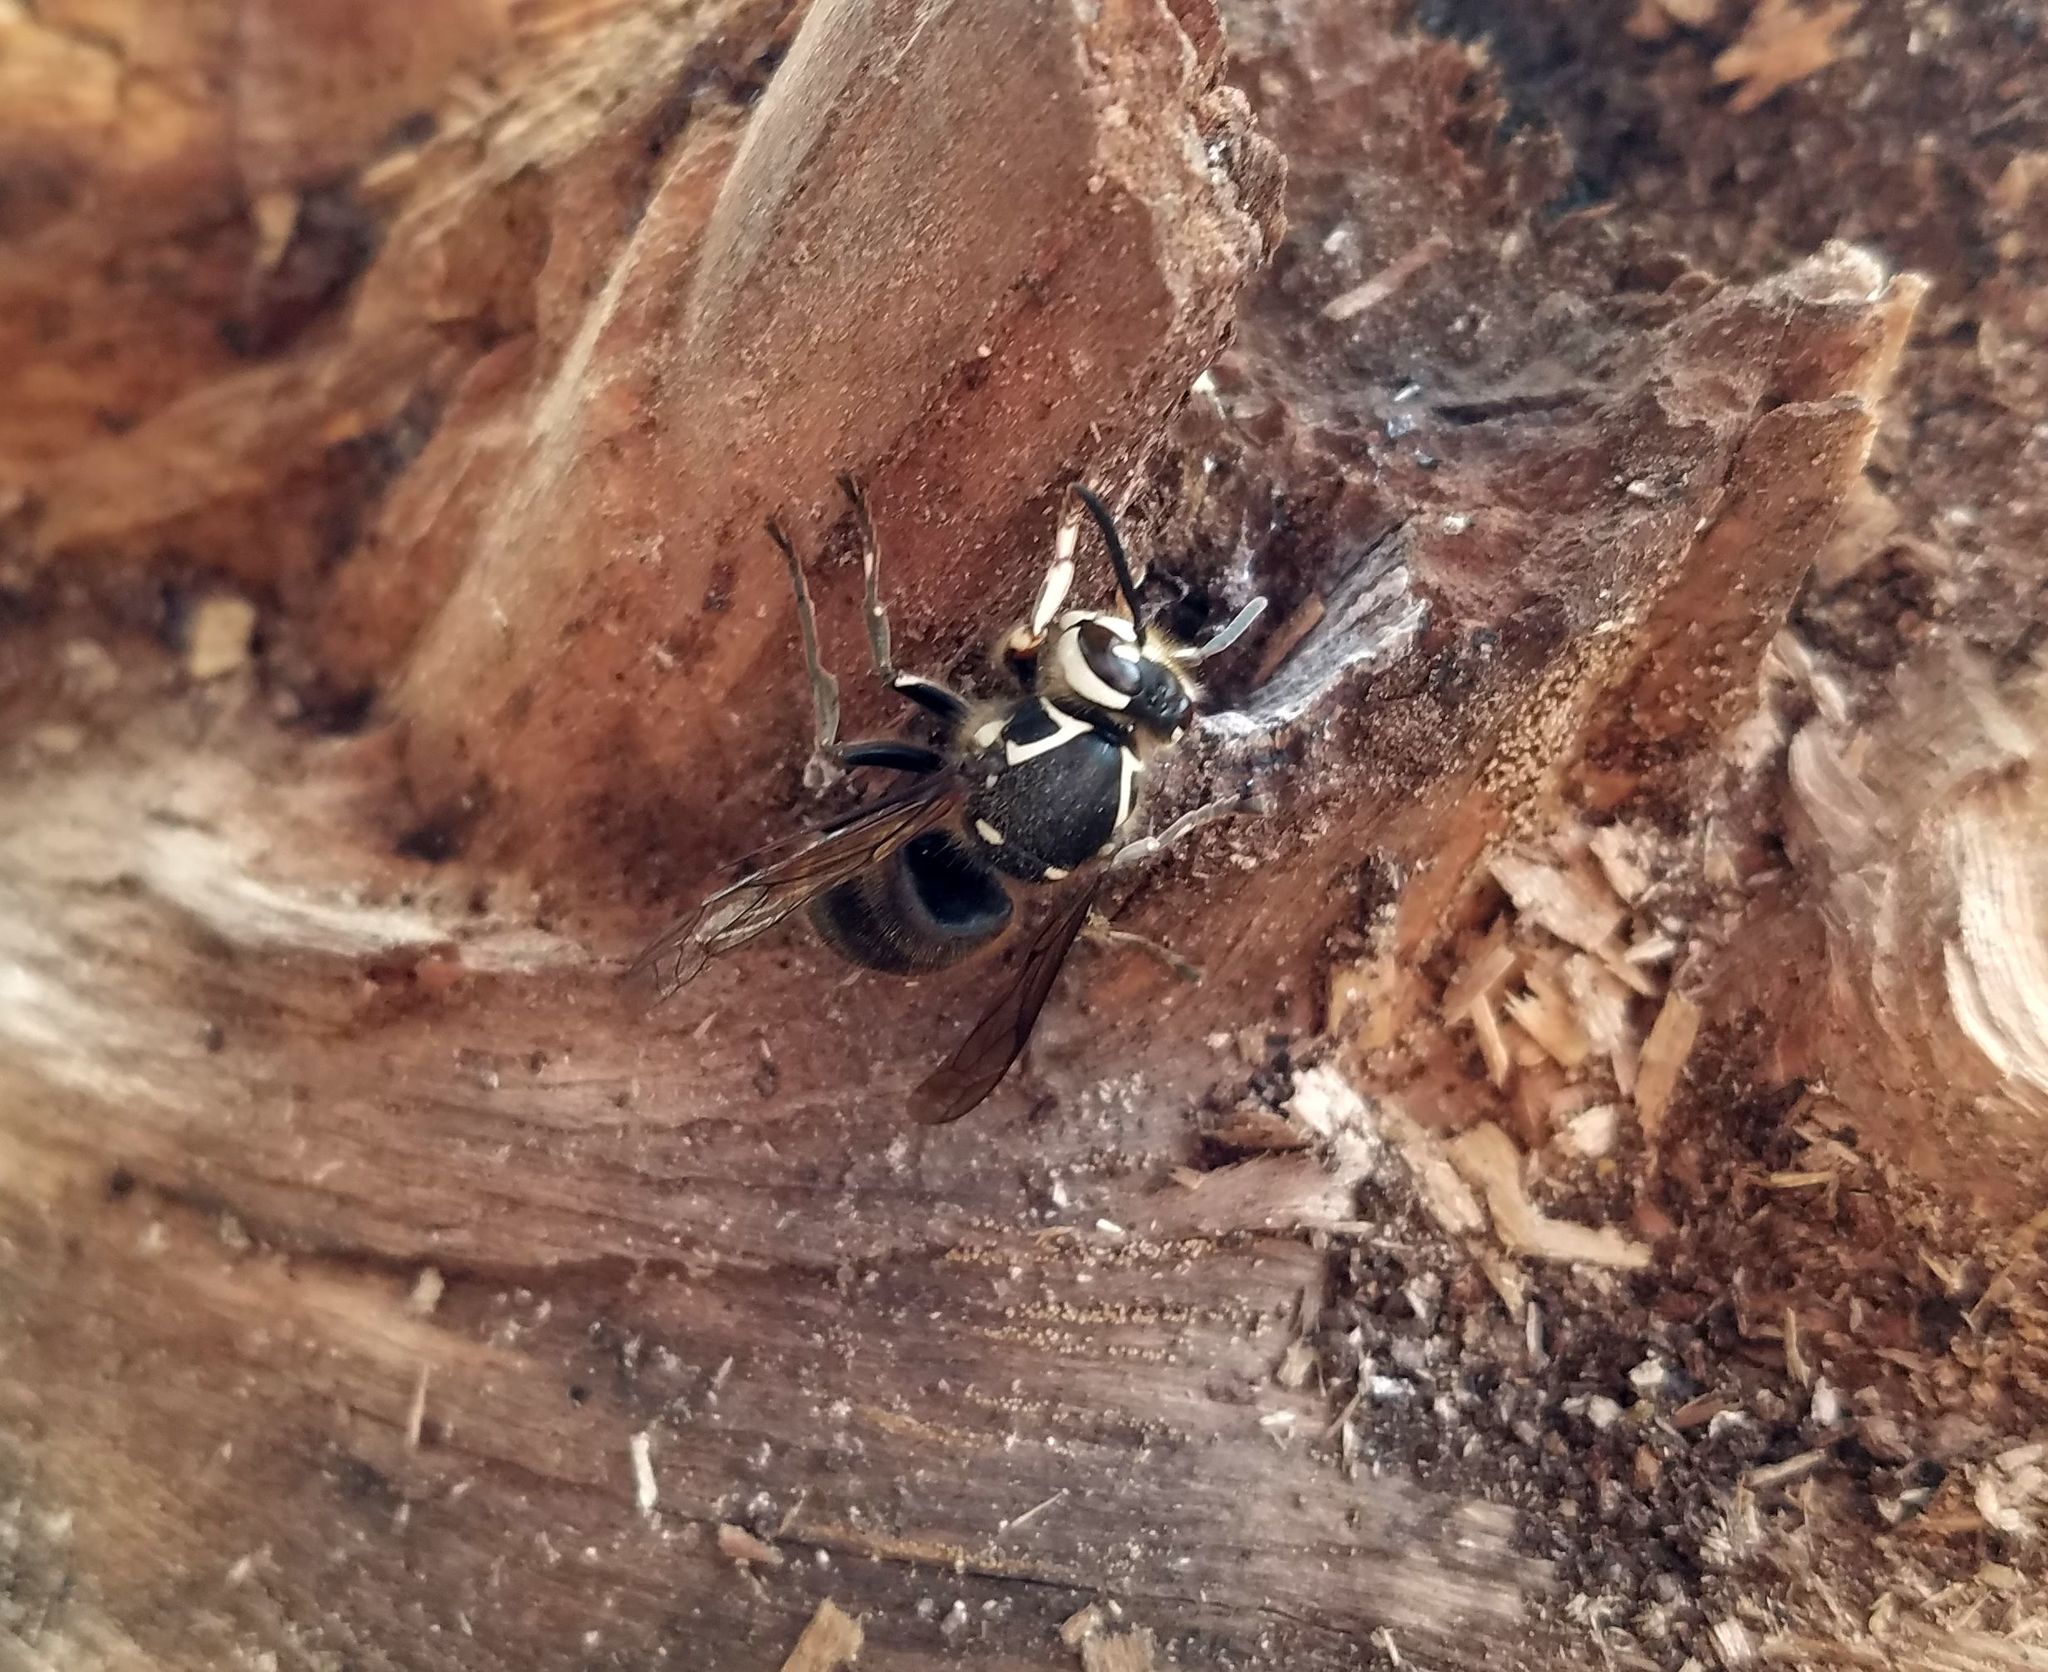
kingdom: Animalia
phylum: Arthropoda
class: Insecta
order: Hymenoptera
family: Vespidae
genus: Dolichovespula
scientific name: Dolichovespula maculata
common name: Bald-faced hornet
